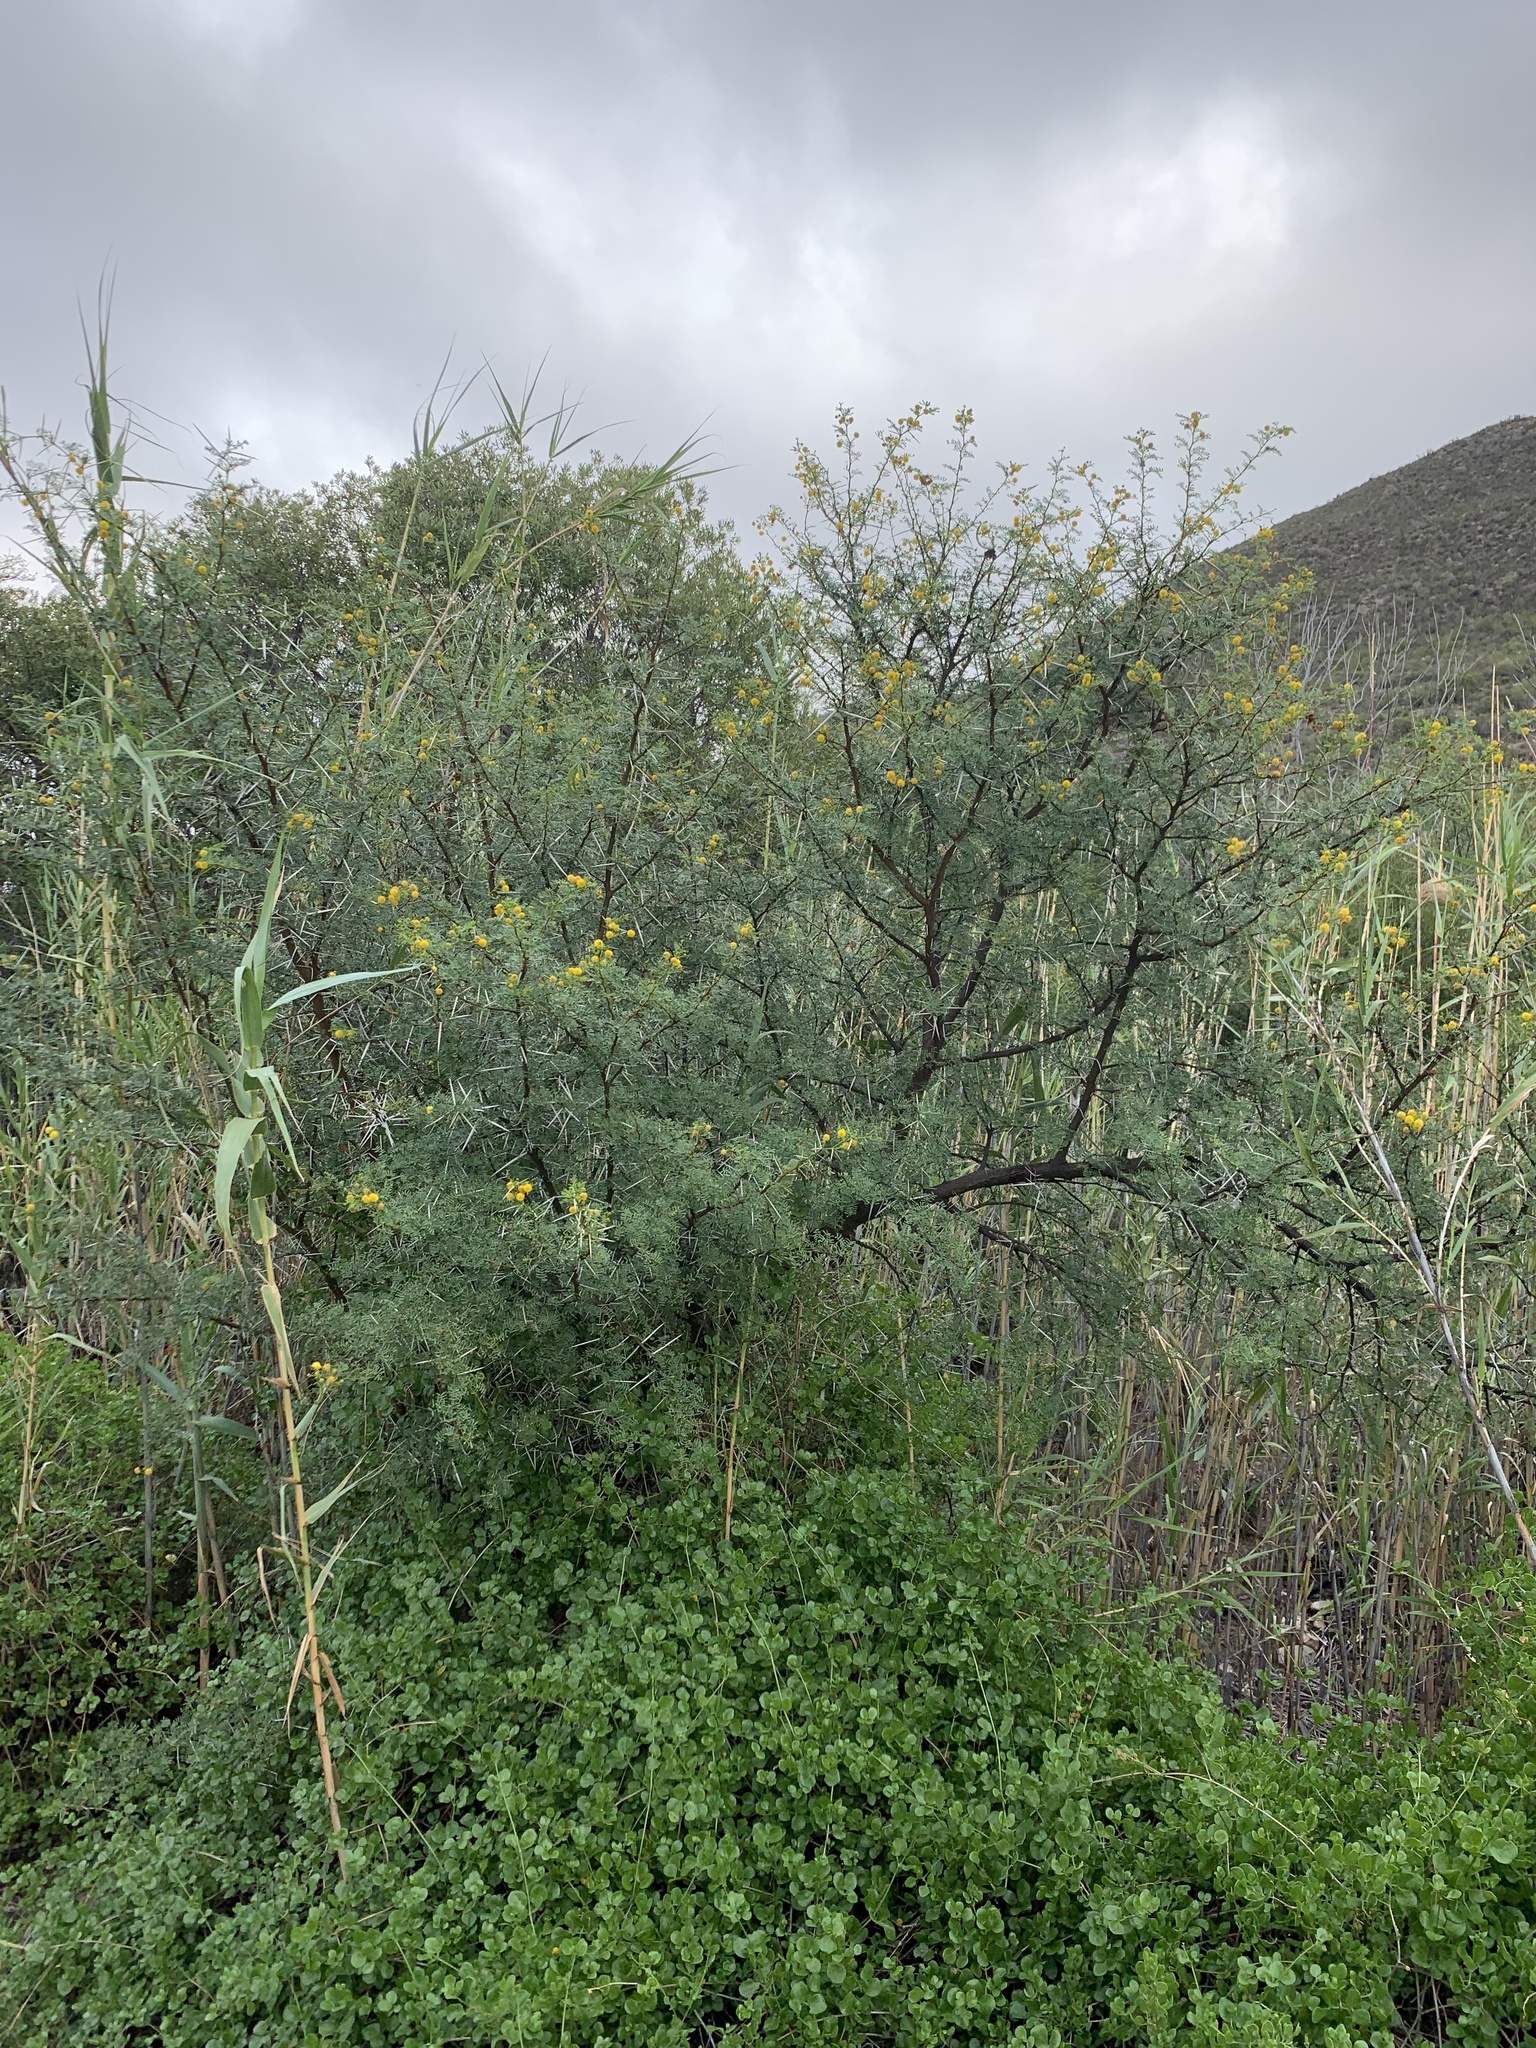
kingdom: Plantae
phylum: Tracheophyta
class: Magnoliopsida
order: Fabales
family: Fabaceae
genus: Vachellia
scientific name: Vachellia karroo
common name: Sweet thorn
